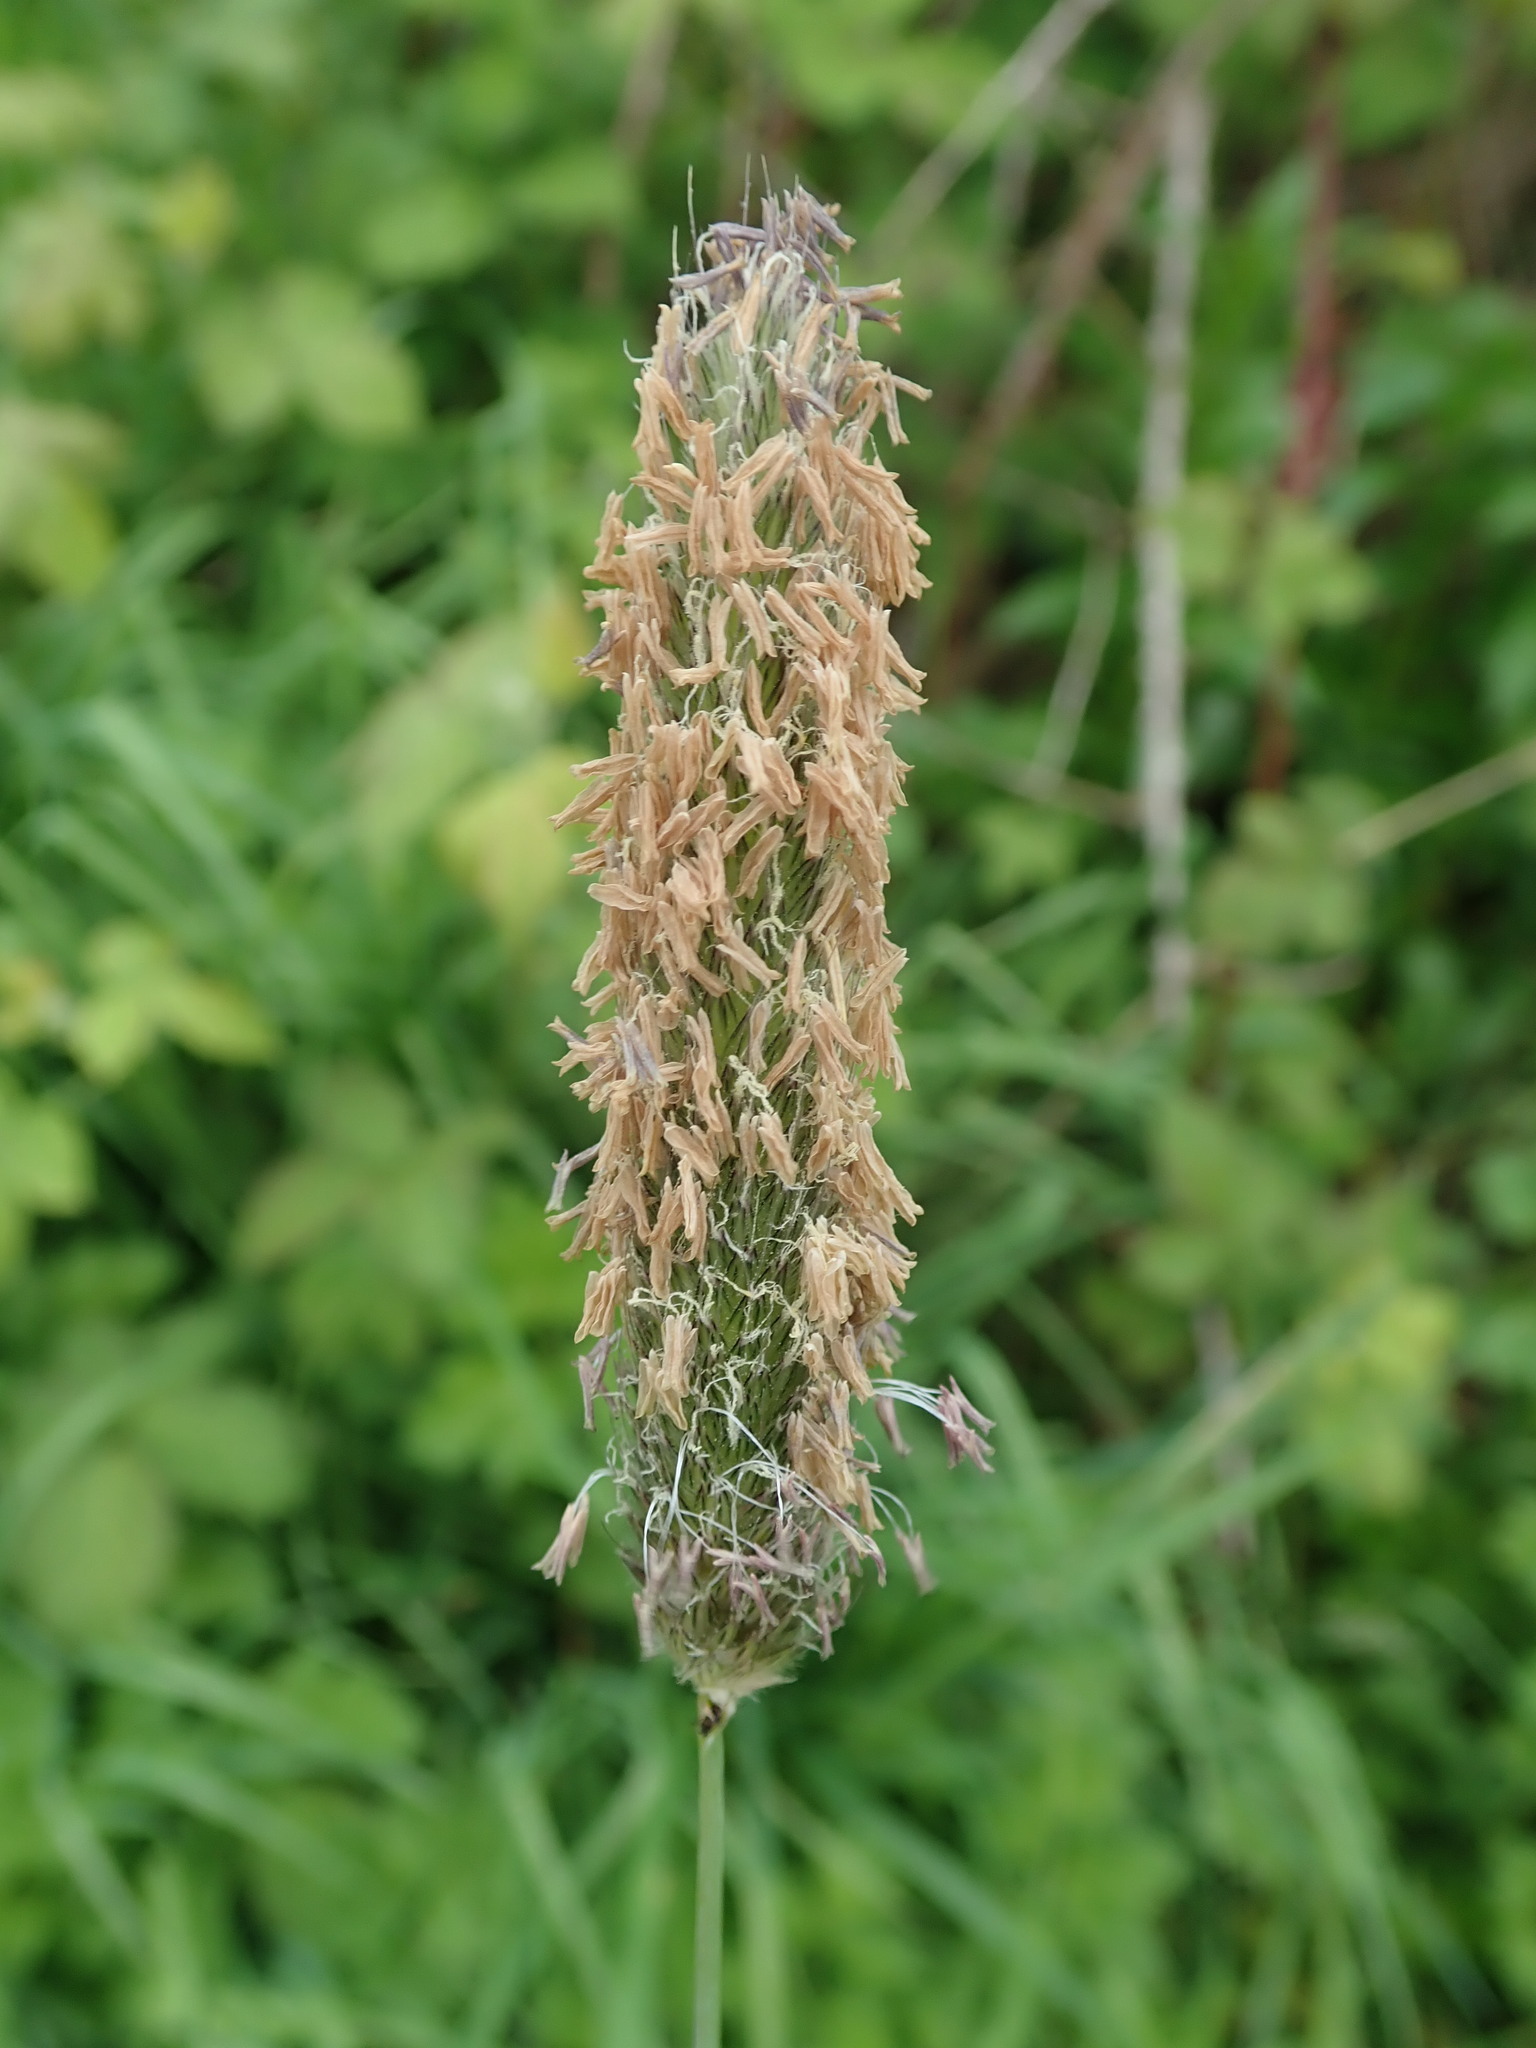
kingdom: Plantae
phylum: Tracheophyta
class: Liliopsida
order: Poales
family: Poaceae
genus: Alopecurus
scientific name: Alopecurus pratensis
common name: Meadow foxtail
